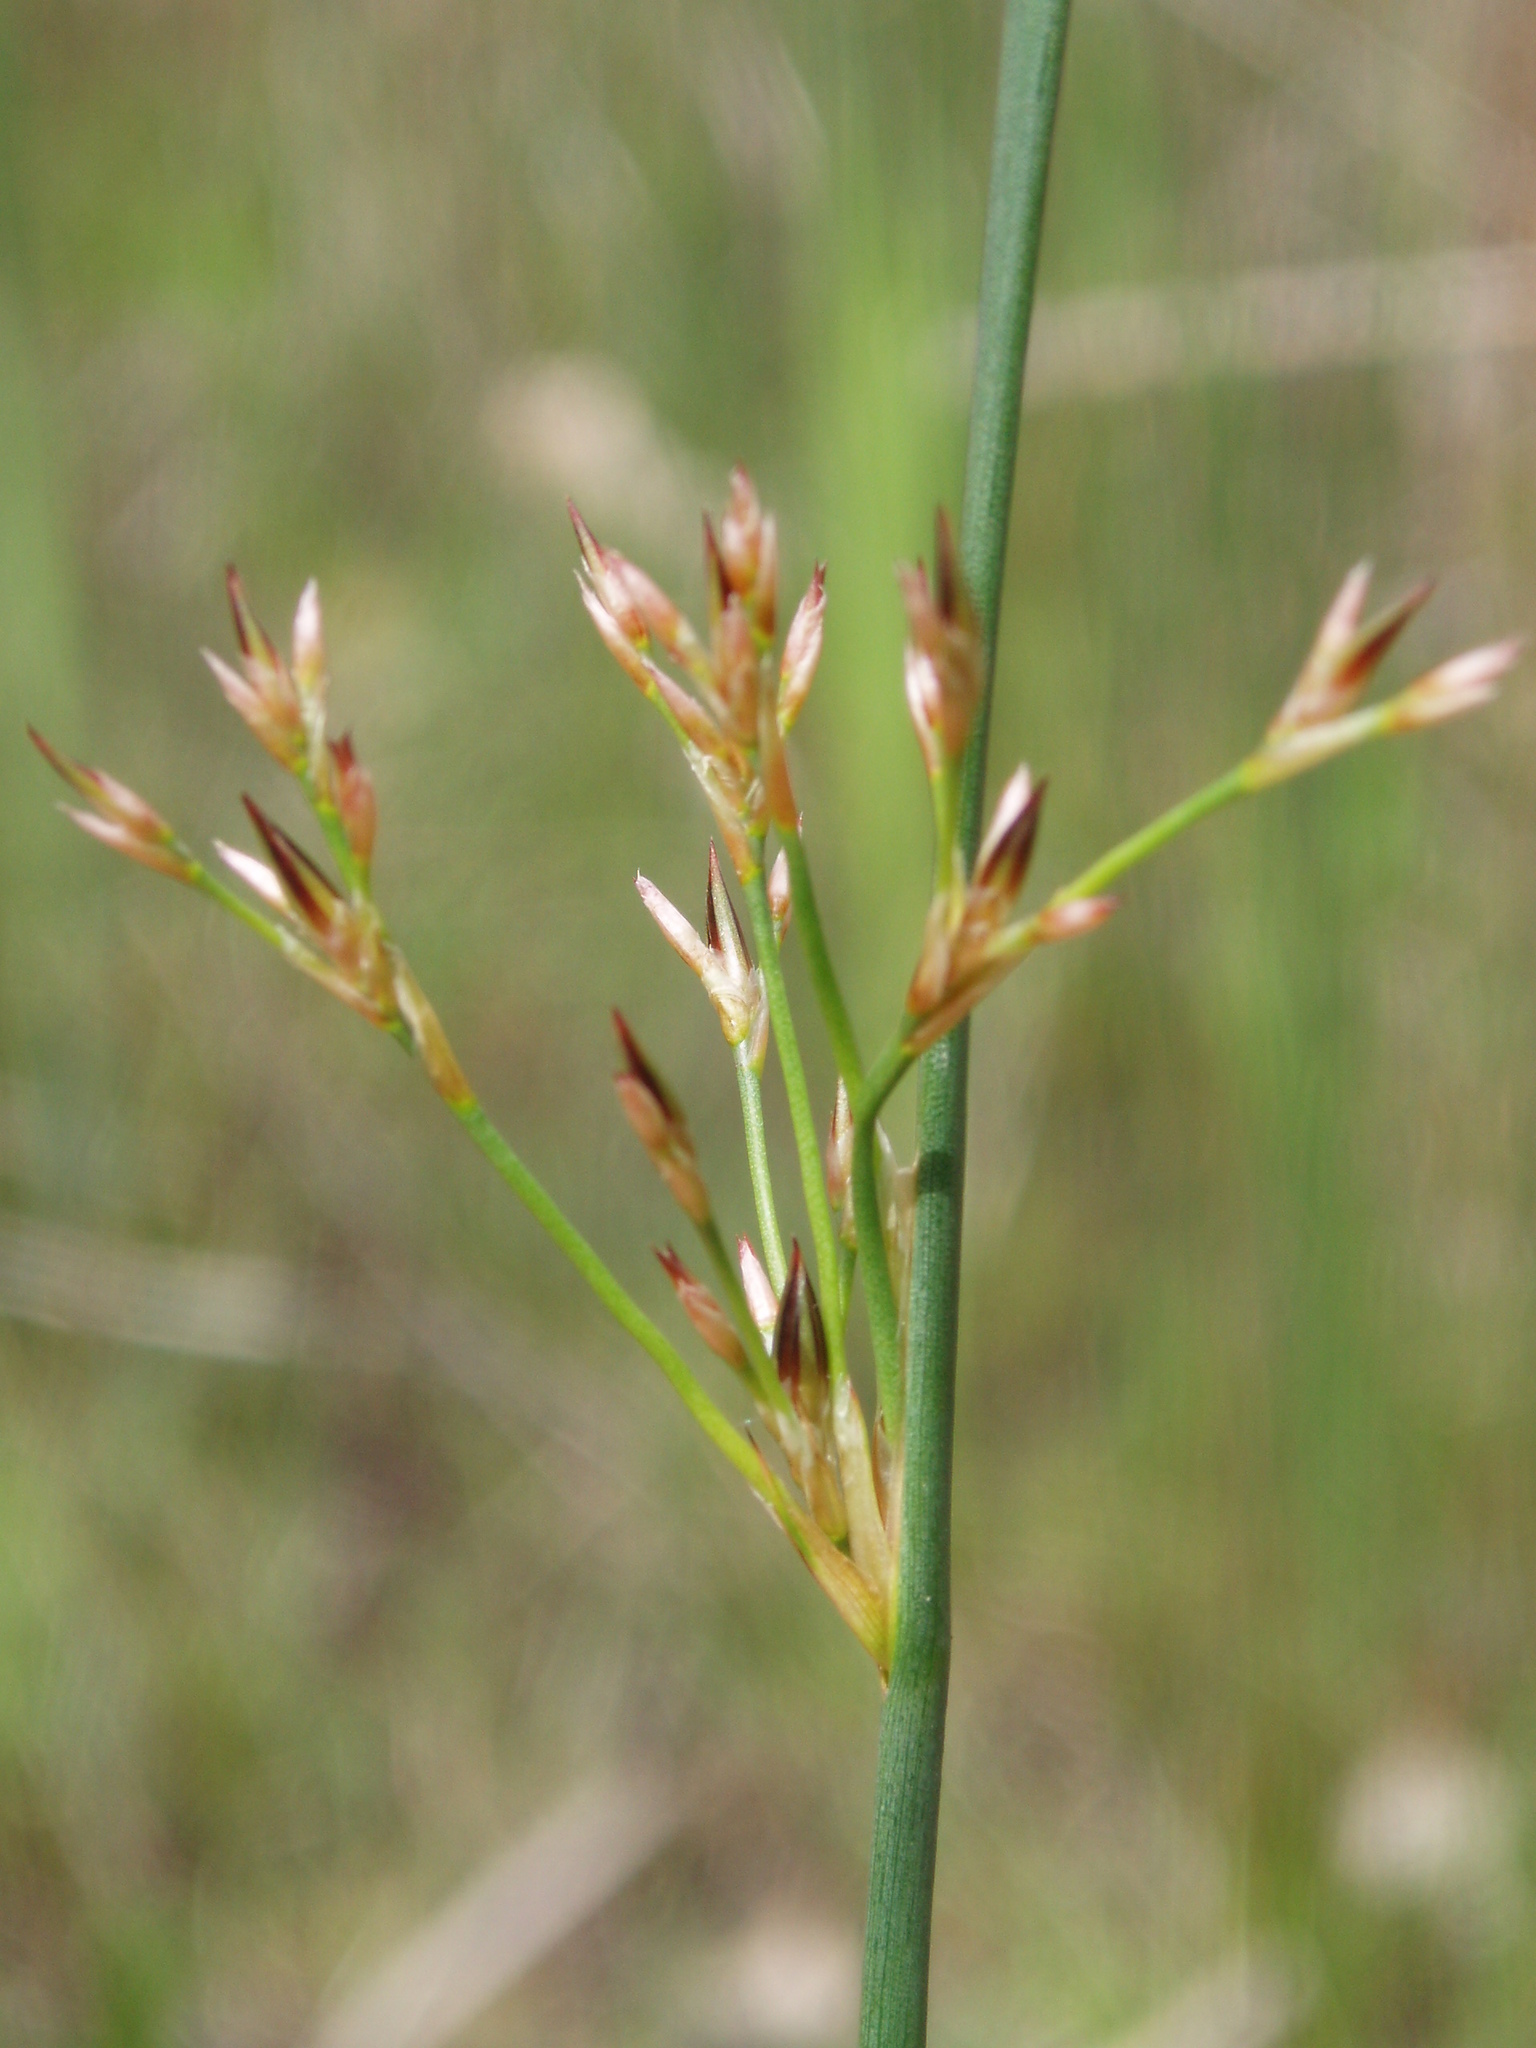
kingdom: Plantae
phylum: Tracheophyta
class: Liliopsida
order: Poales
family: Juncaceae
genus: Juncus
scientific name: Juncus balticus
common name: Baltic rush
